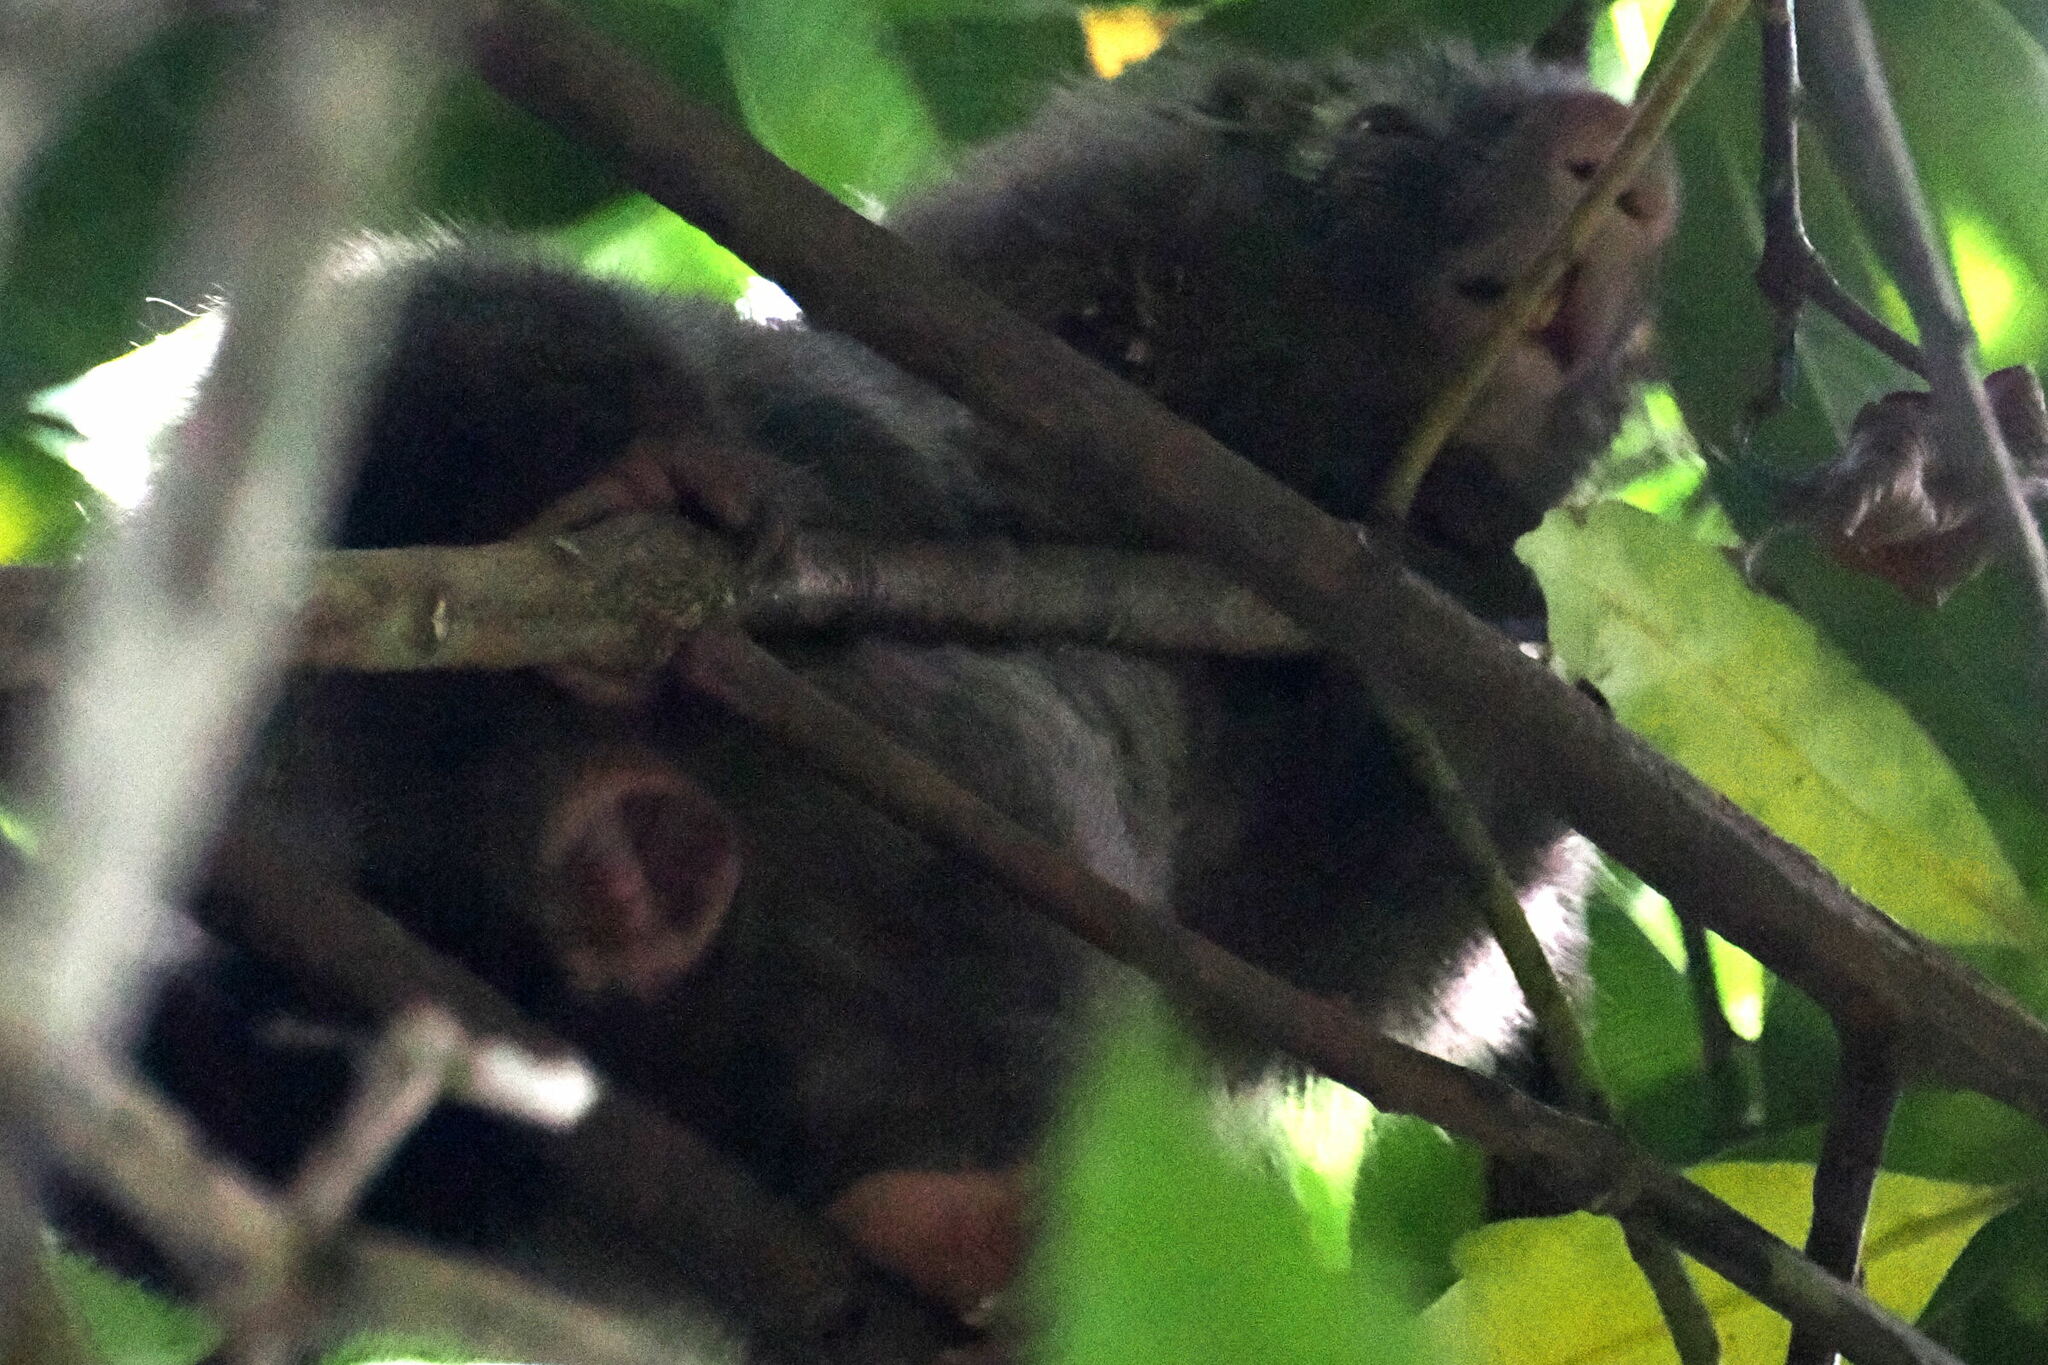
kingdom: Animalia
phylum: Chordata
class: Mammalia
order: Rodentia
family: Erethizontidae
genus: Sphiggurus
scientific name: Sphiggurus insidiosus
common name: Bahia porcupine
